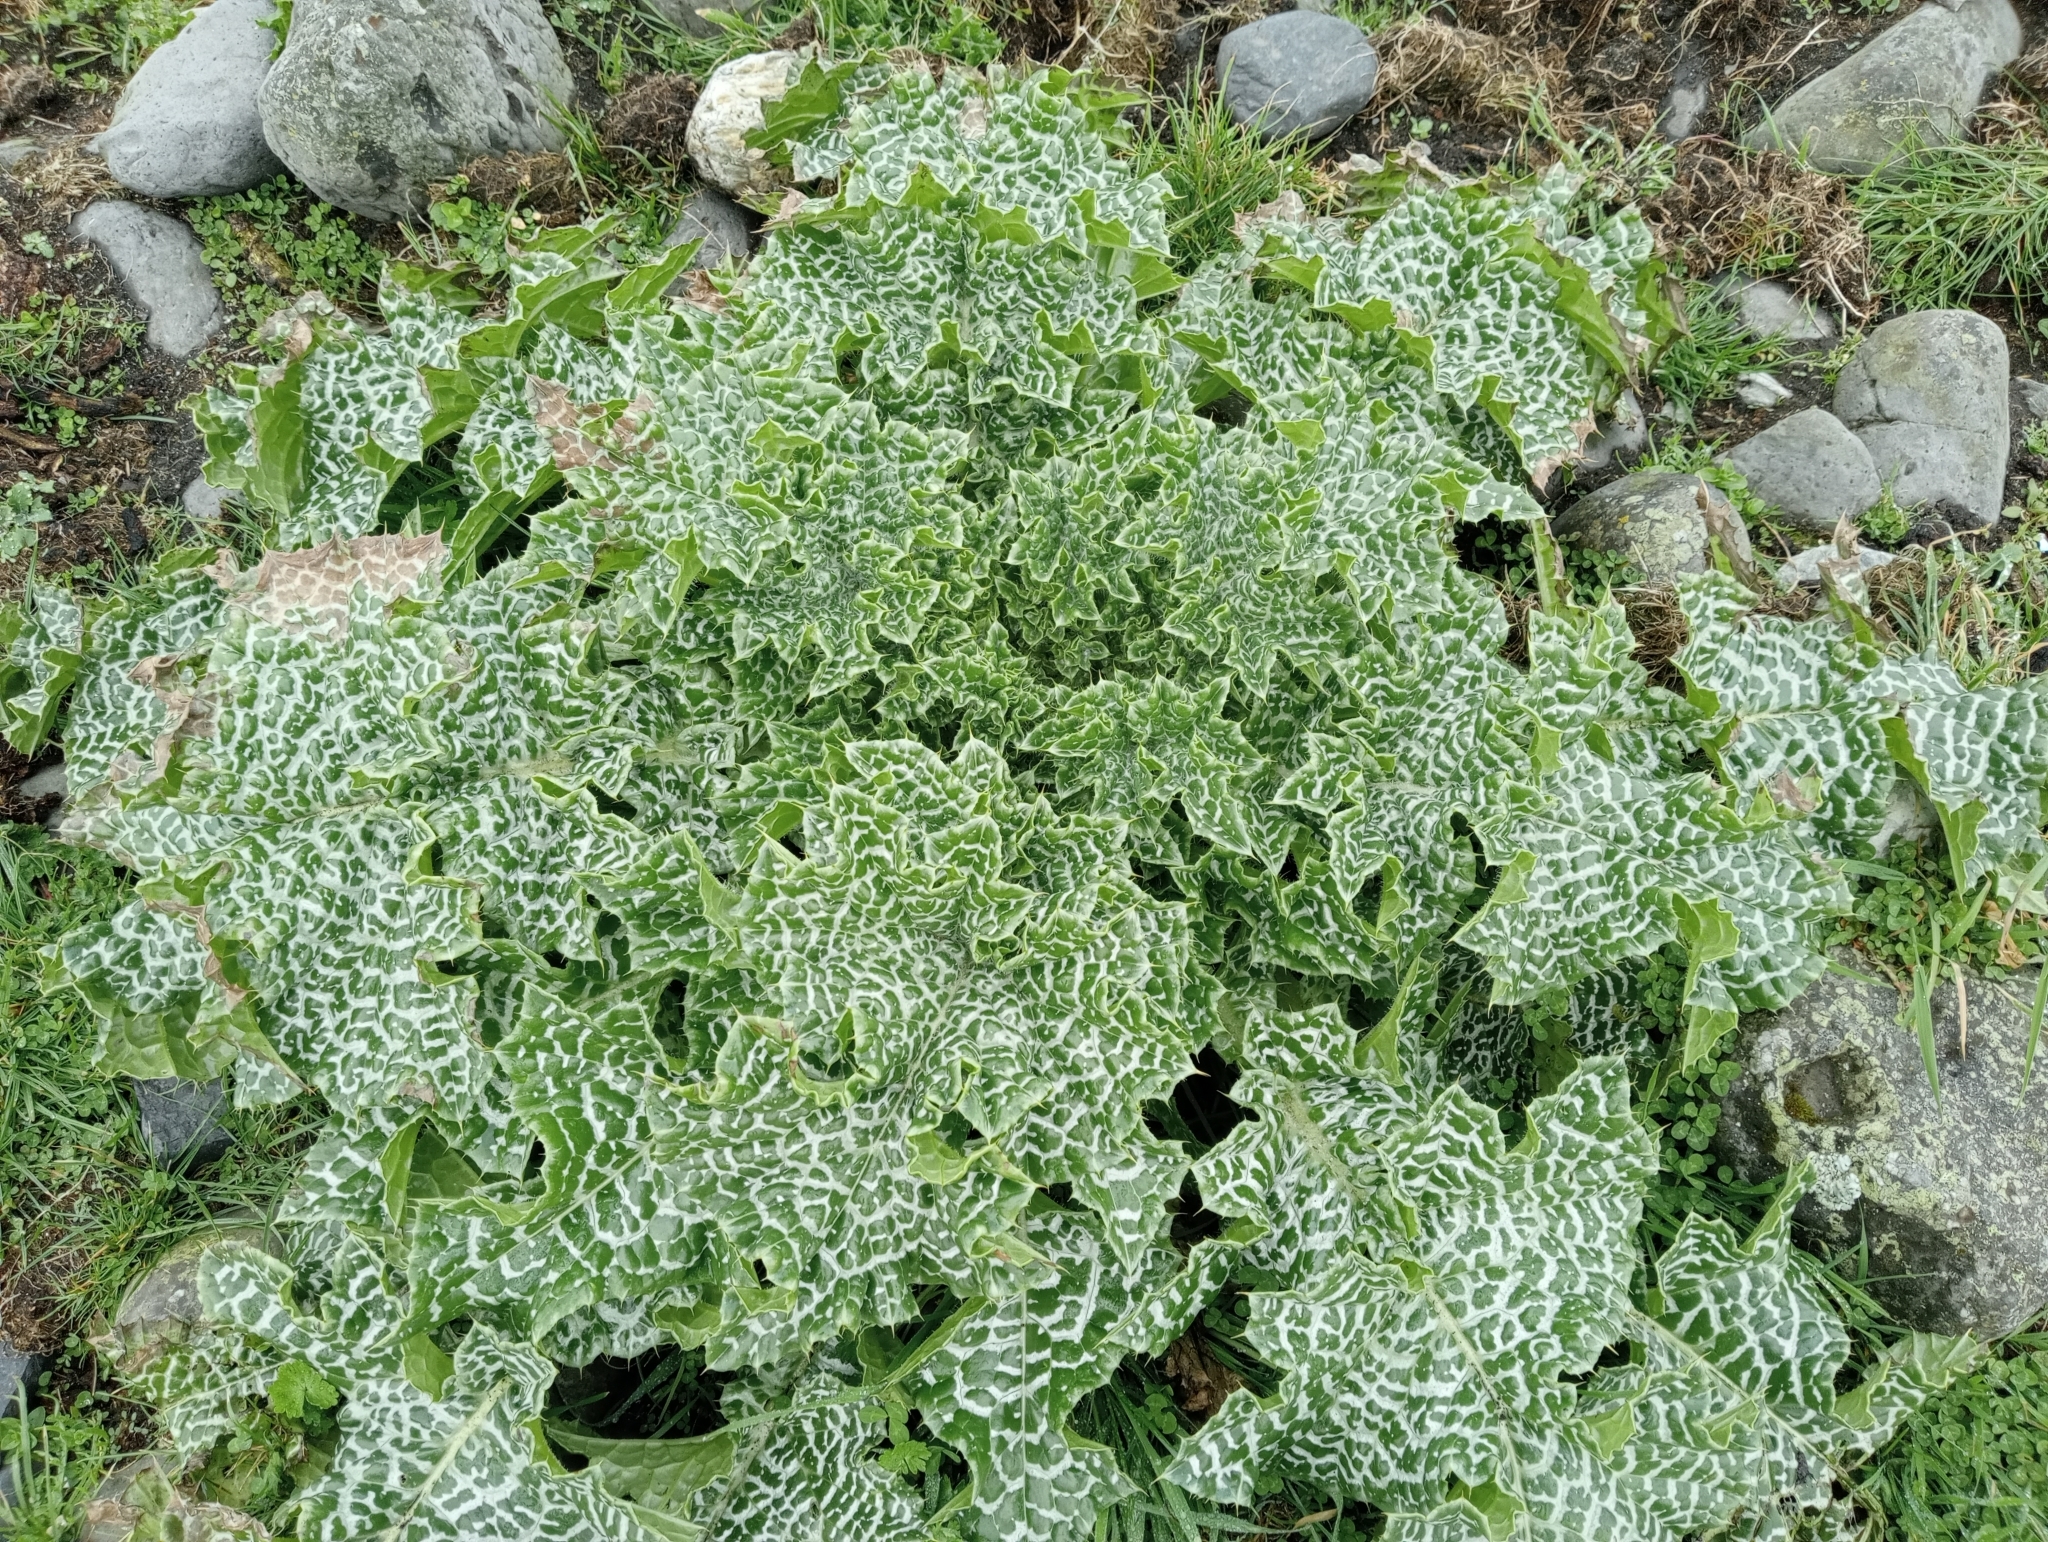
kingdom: Plantae
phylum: Tracheophyta
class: Magnoliopsida
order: Asterales
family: Asteraceae
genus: Silybum
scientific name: Silybum marianum
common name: Milk thistle
